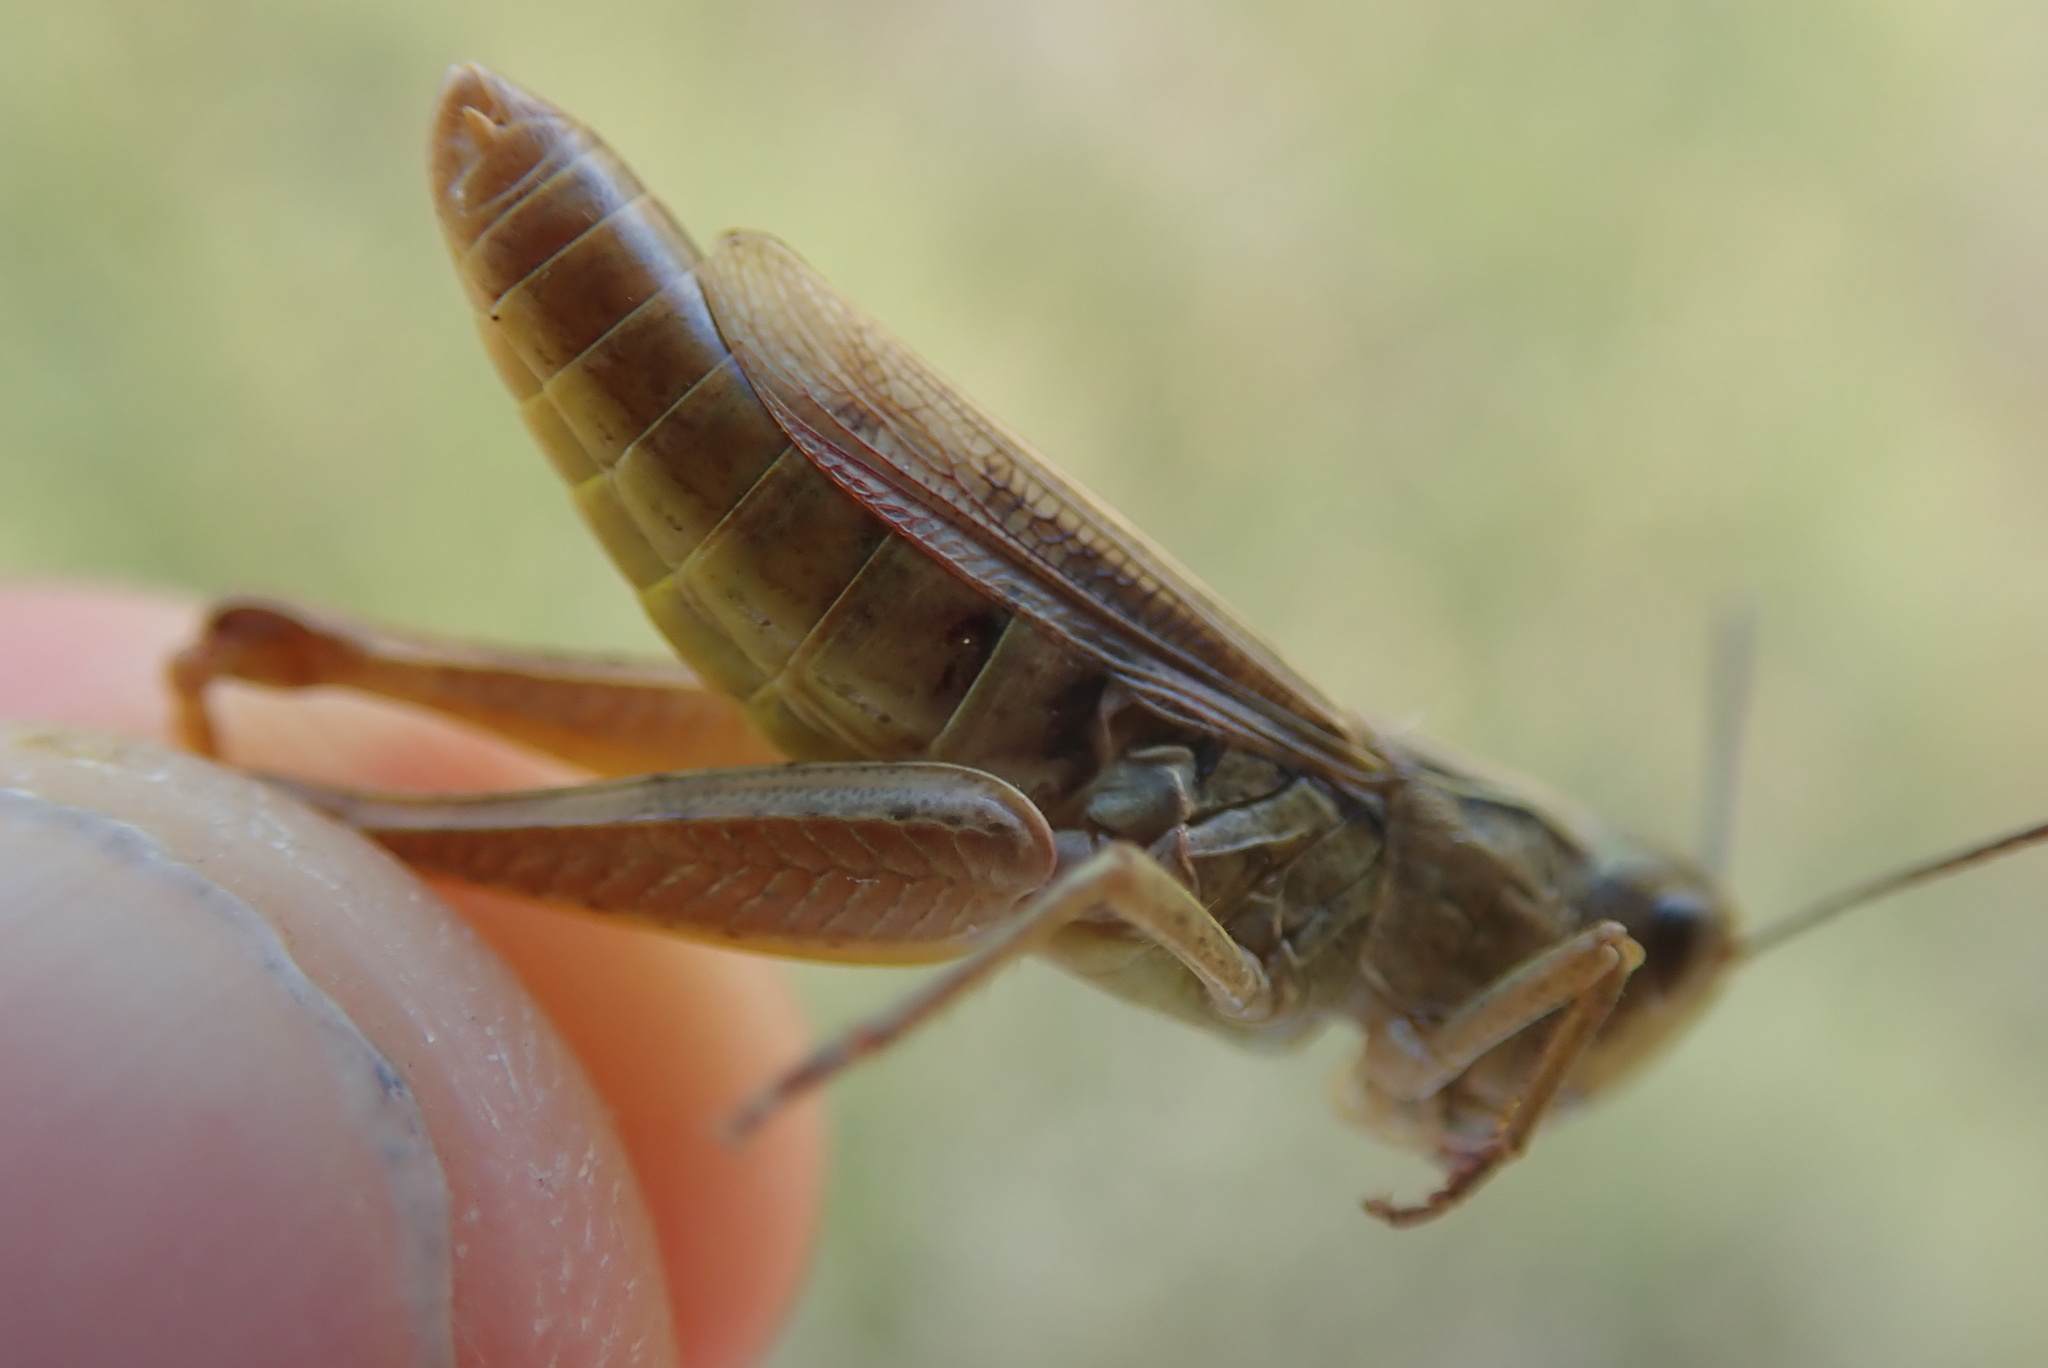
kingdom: Animalia
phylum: Arthropoda
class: Insecta
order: Orthoptera
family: Acrididae
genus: Chorthippus
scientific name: Chorthippus apricarius
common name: Upland field grasshopper
